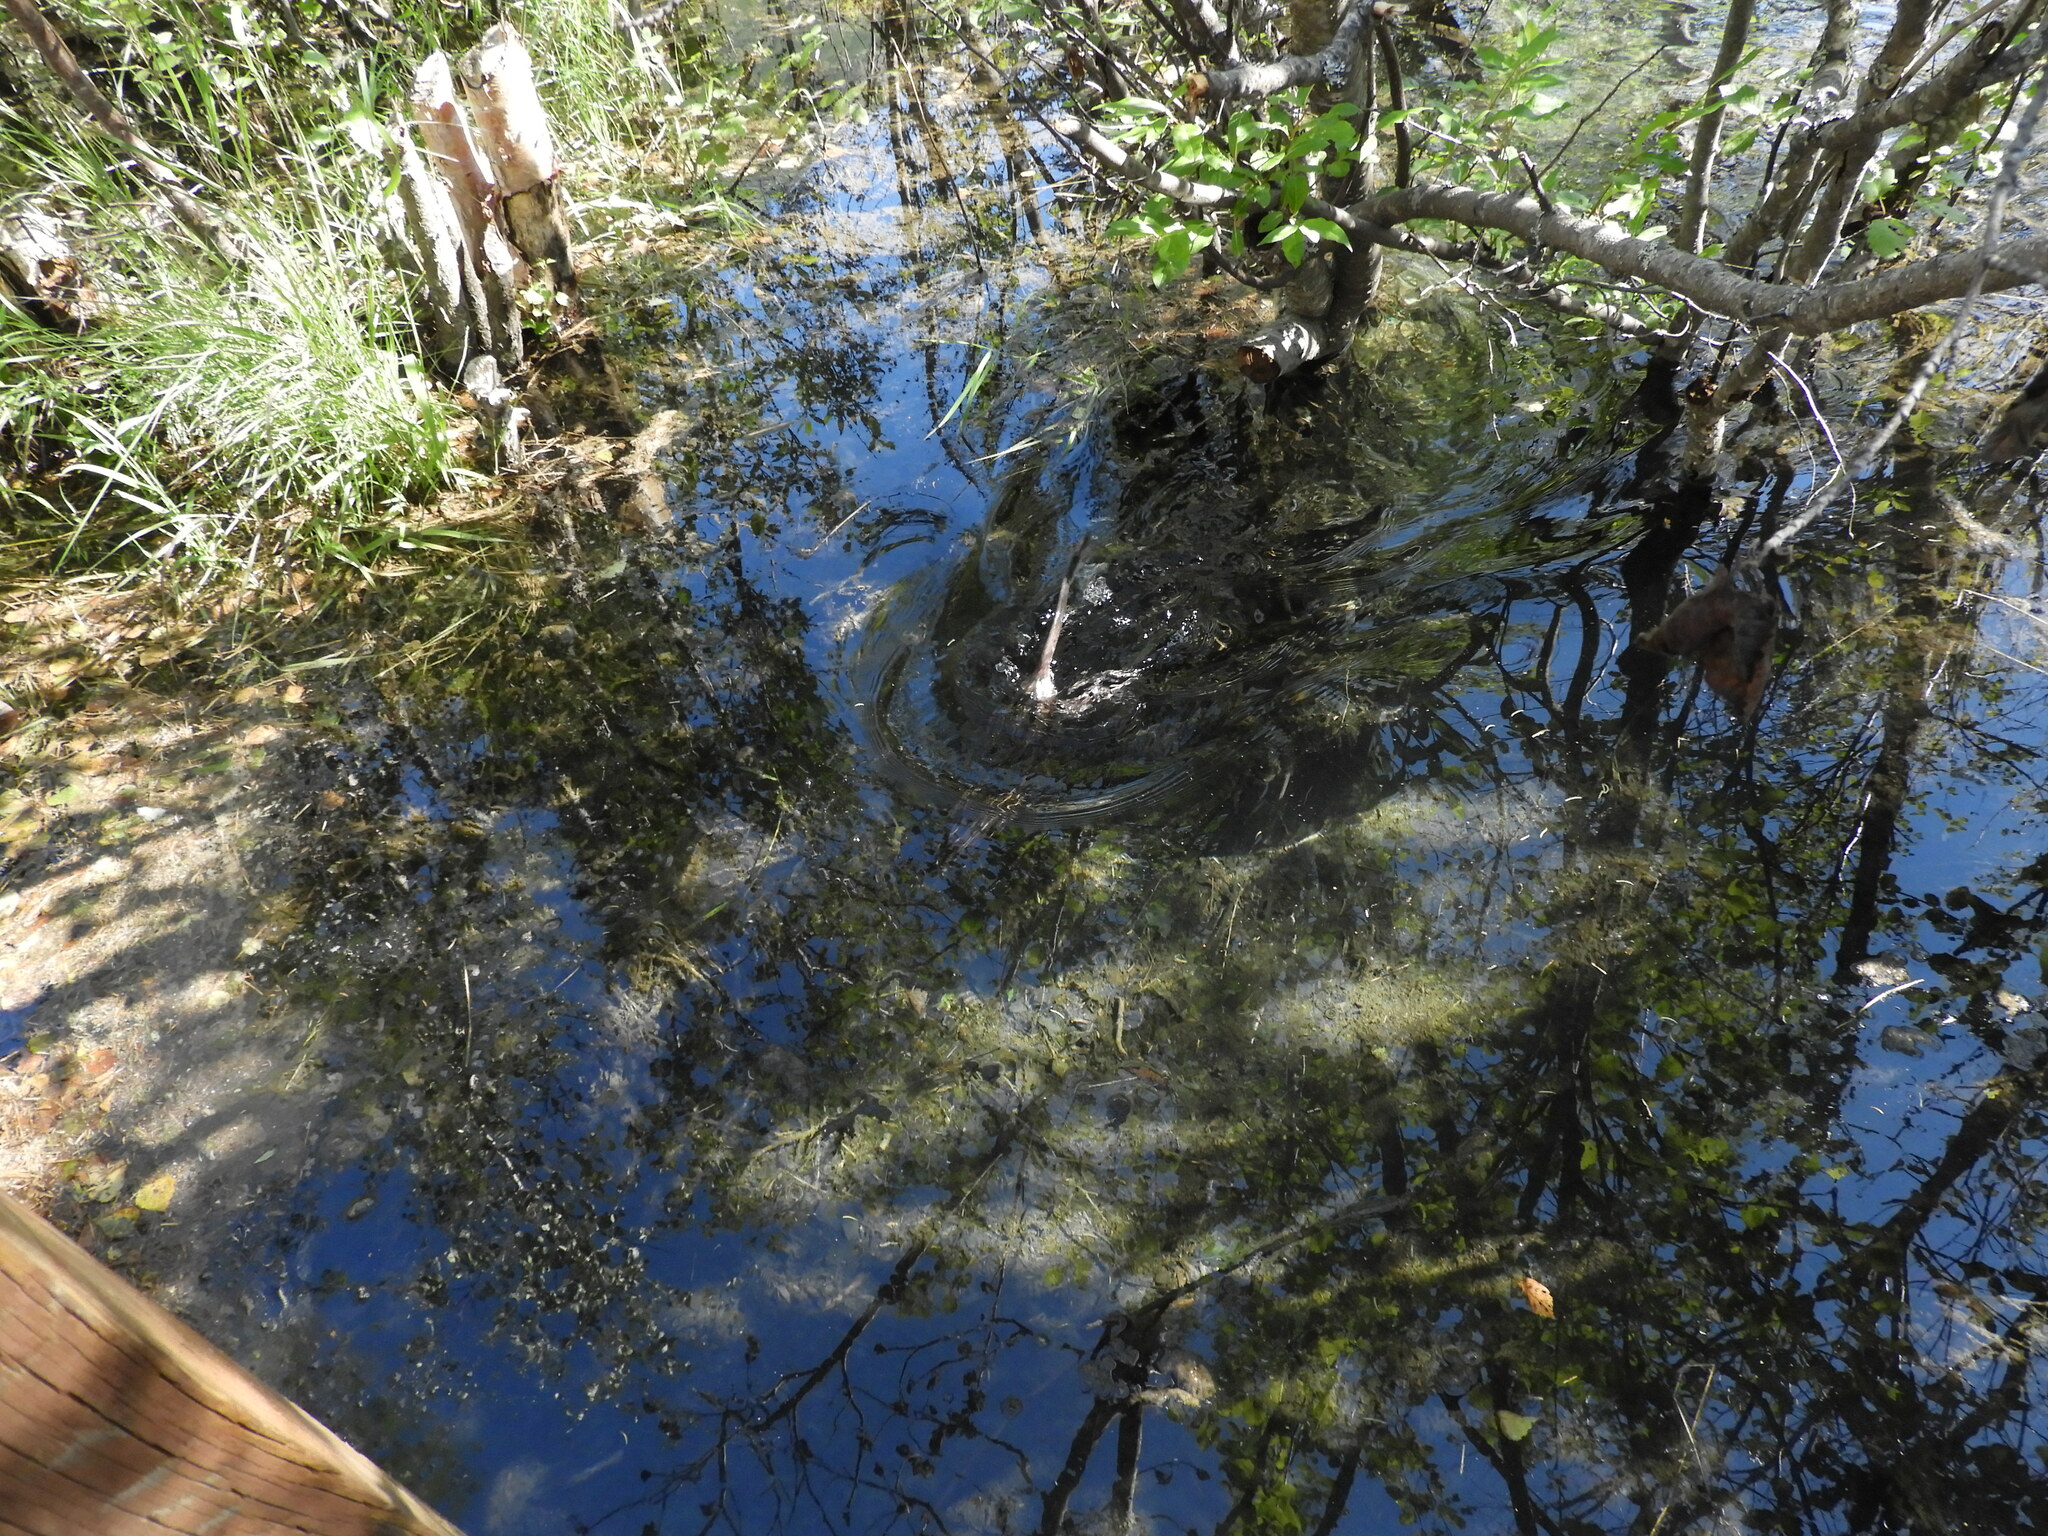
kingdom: Animalia
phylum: Chordata
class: Mammalia
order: Rodentia
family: Cricetidae
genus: Ondatra
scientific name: Ondatra zibethicus
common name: Muskrat
